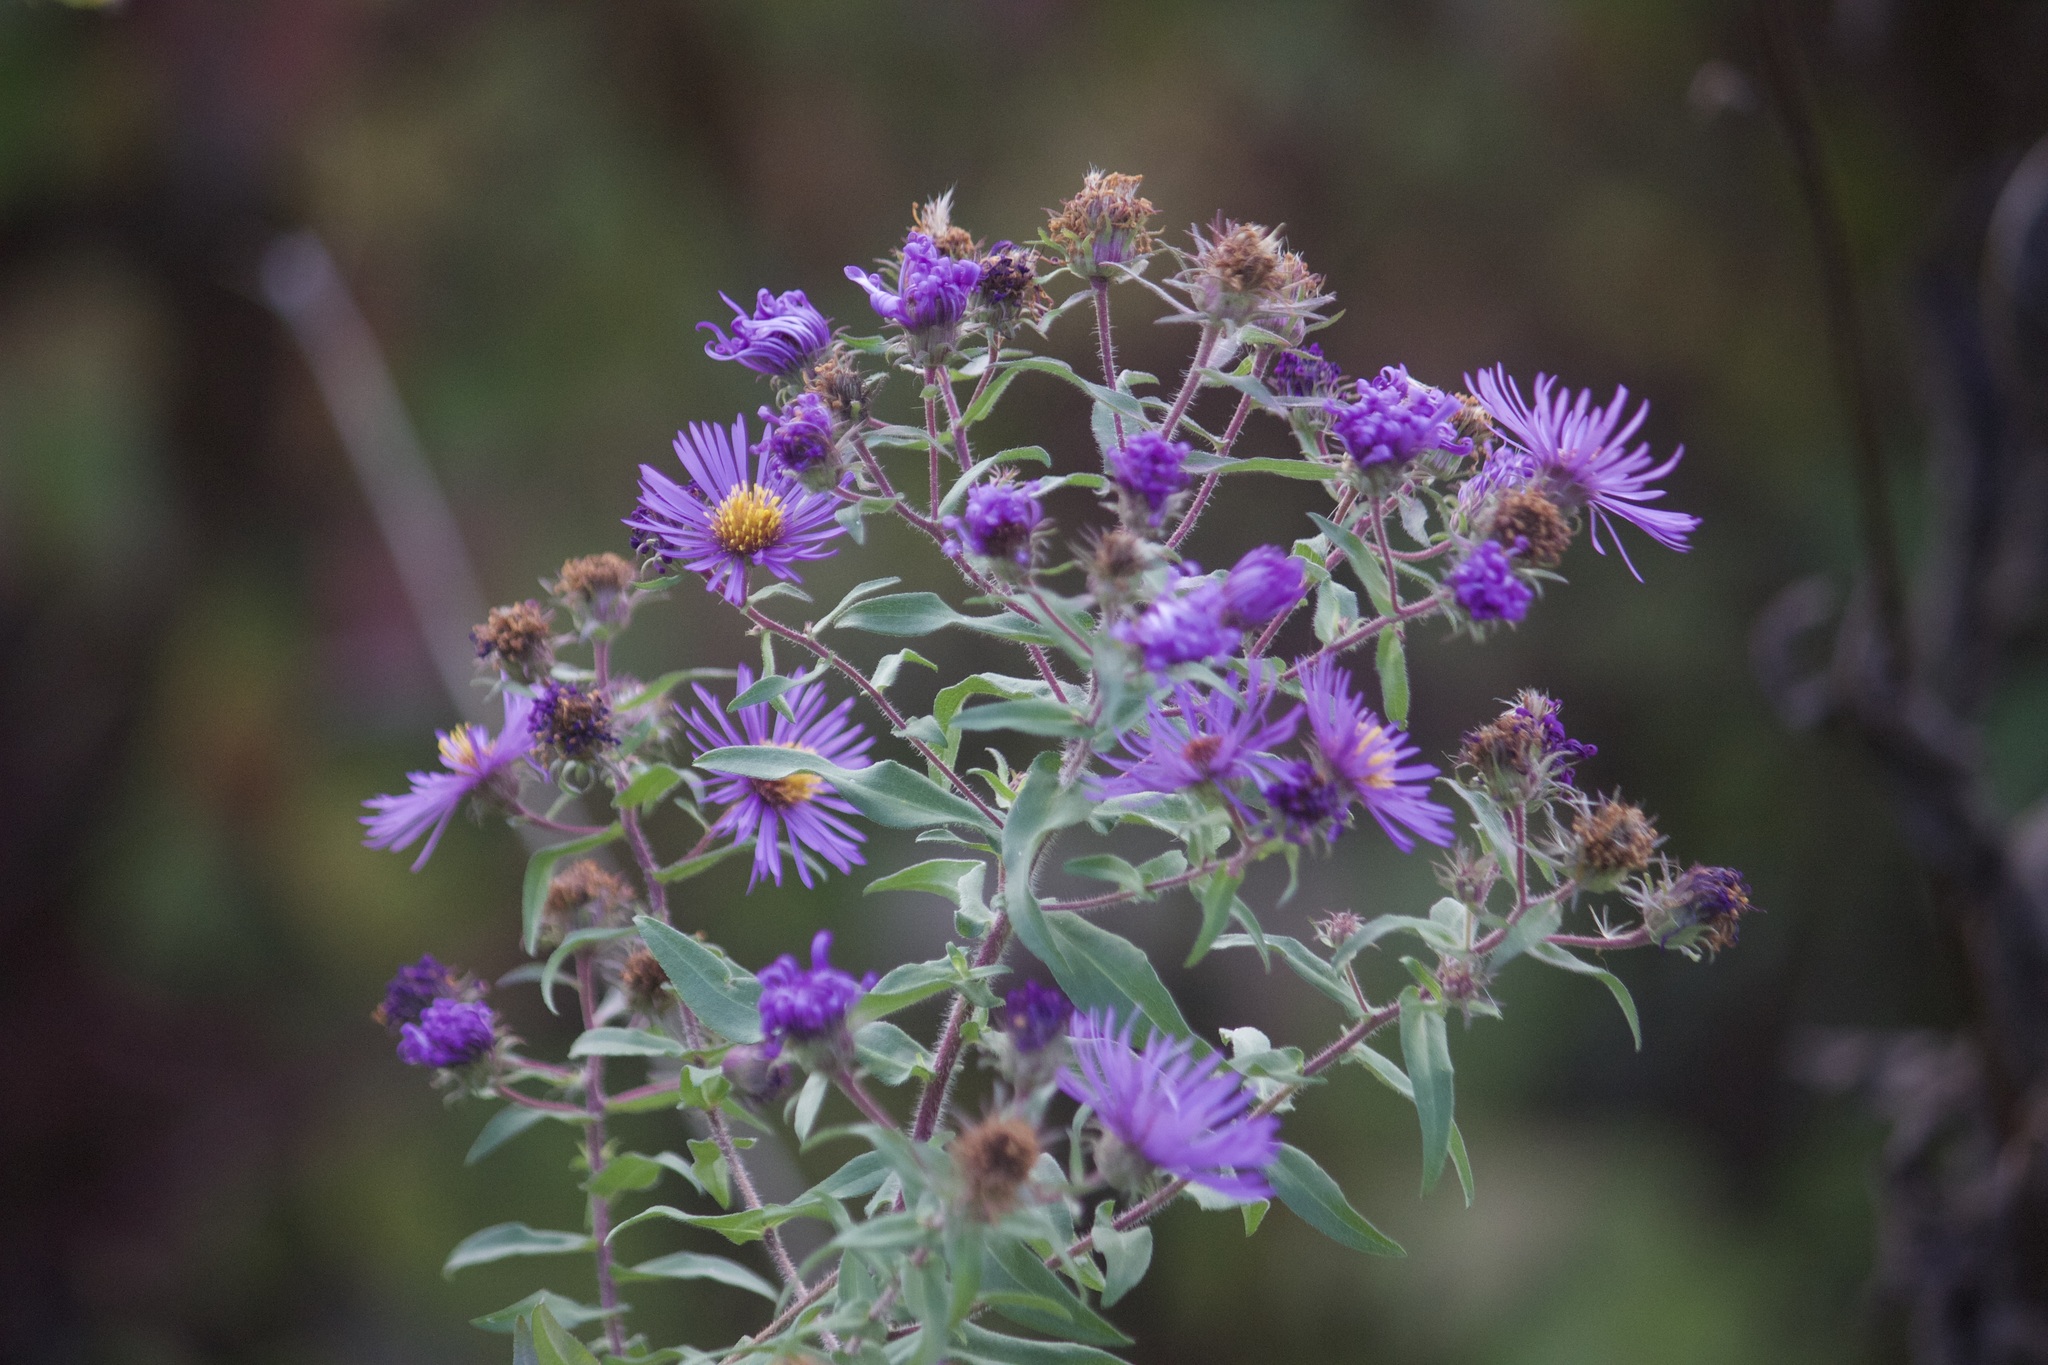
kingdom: Plantae
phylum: Tracheophyta
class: Magnoliopsida
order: Asterales
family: Asteraceae
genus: Symphyotrichum
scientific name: Symphyotrichum novae-angliae
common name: Michaelmas daisy
